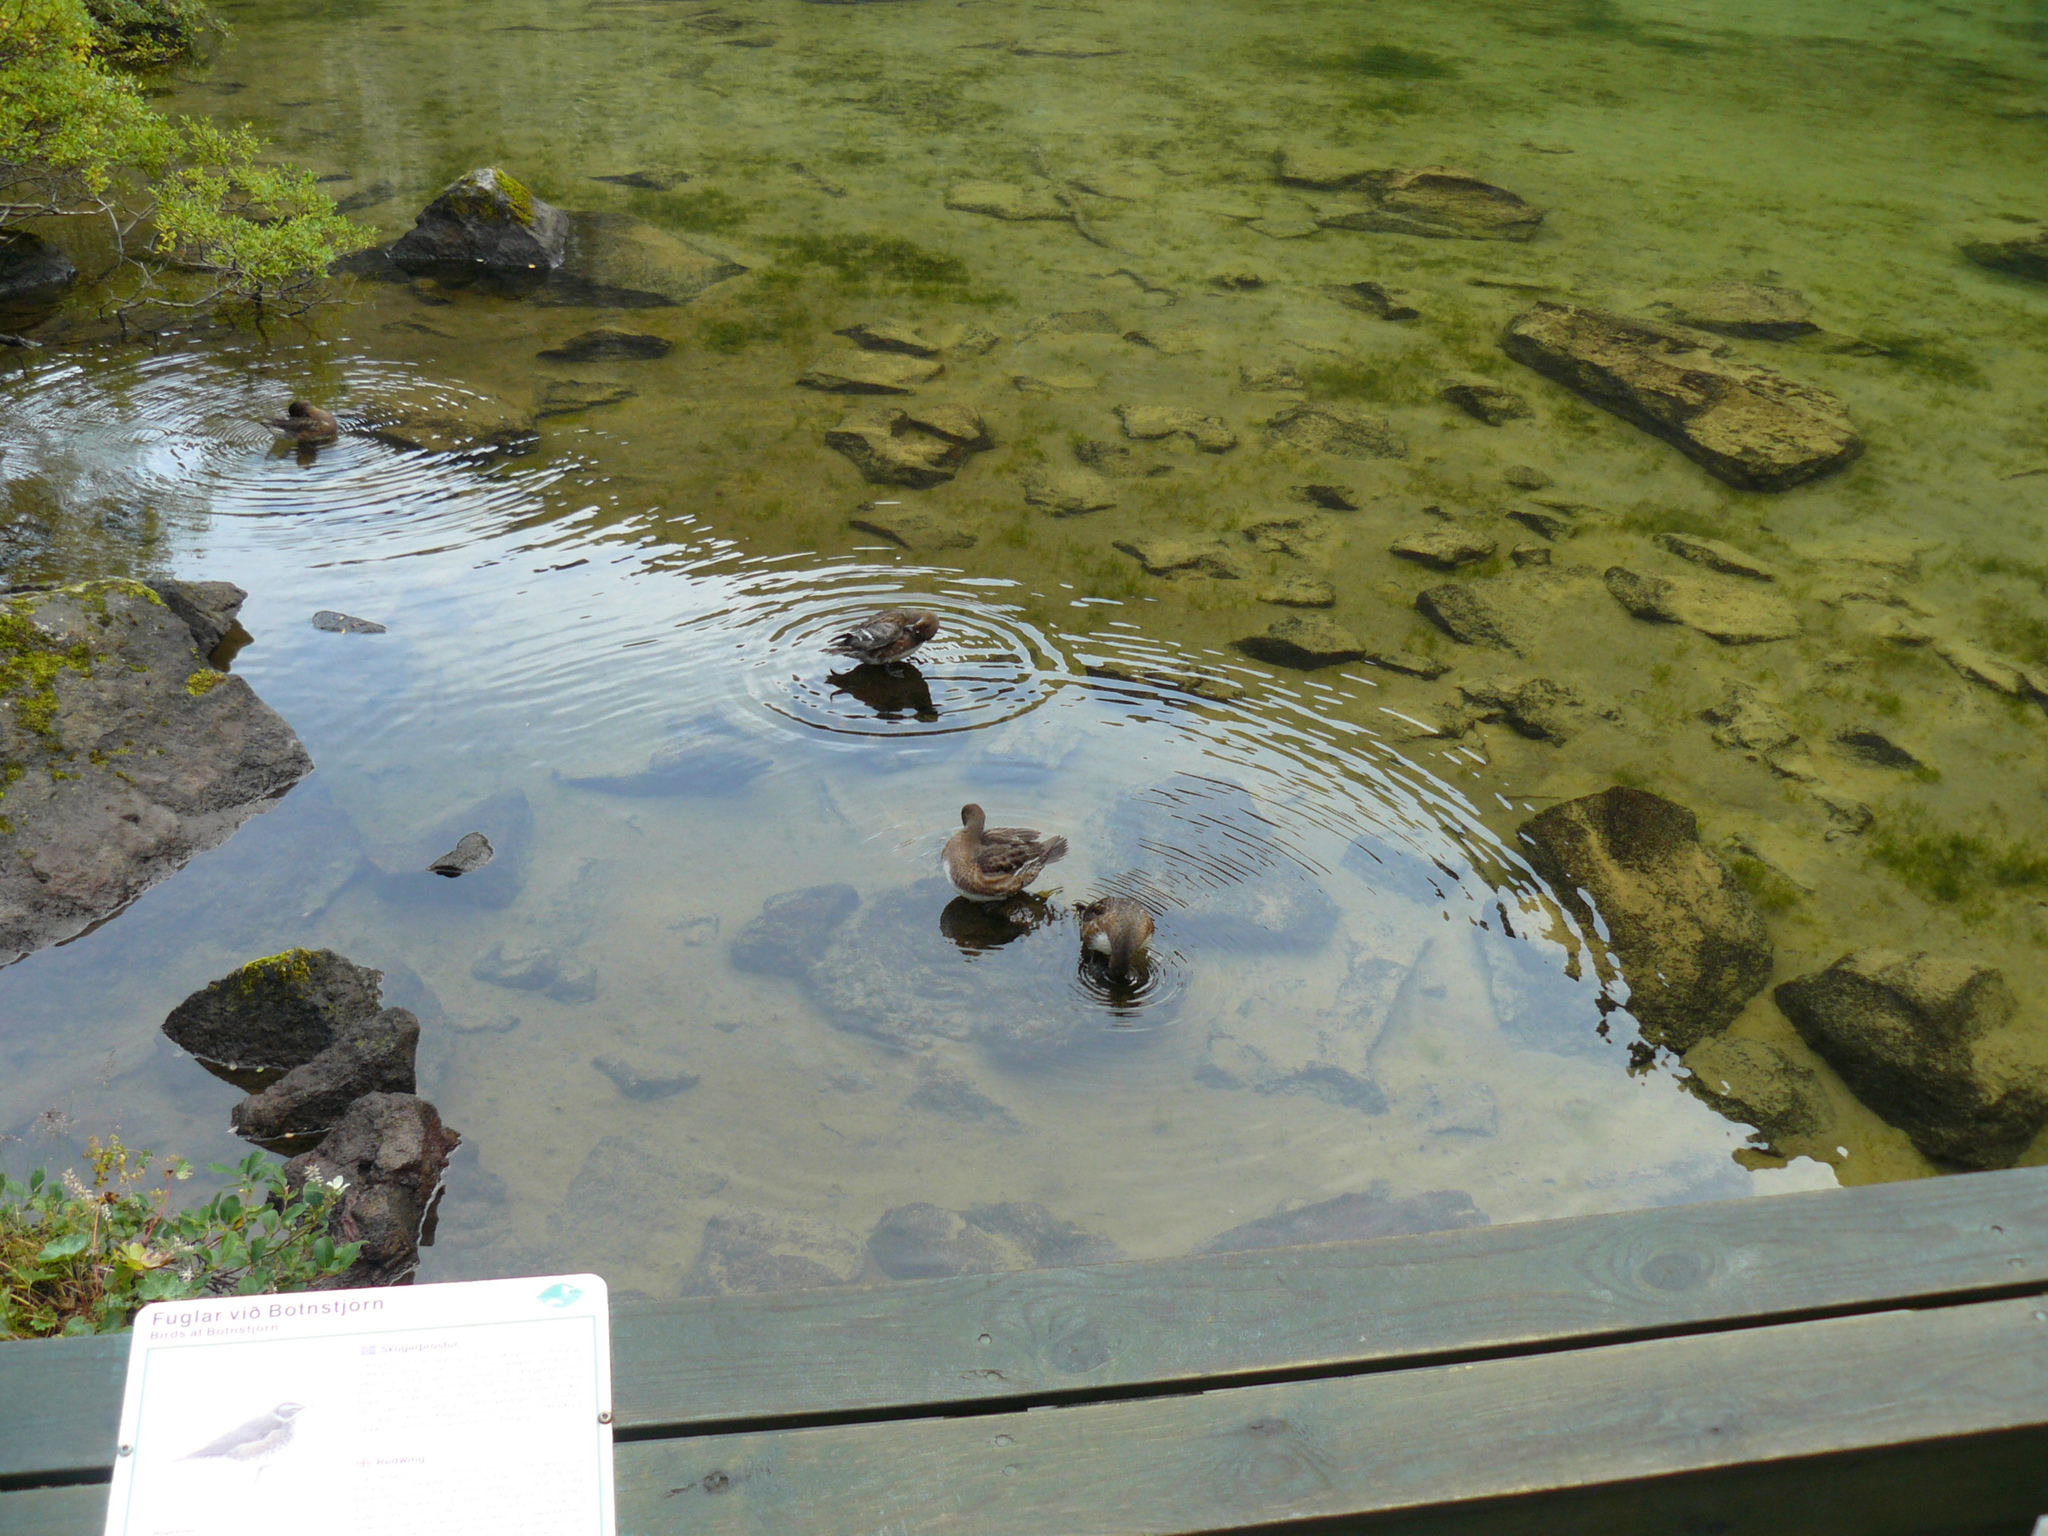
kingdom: Animalia
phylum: Chordata
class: Aves
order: Anseriformes
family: Anatidae
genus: Mareca
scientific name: Mareca penelope
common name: Eurasian wigeon
